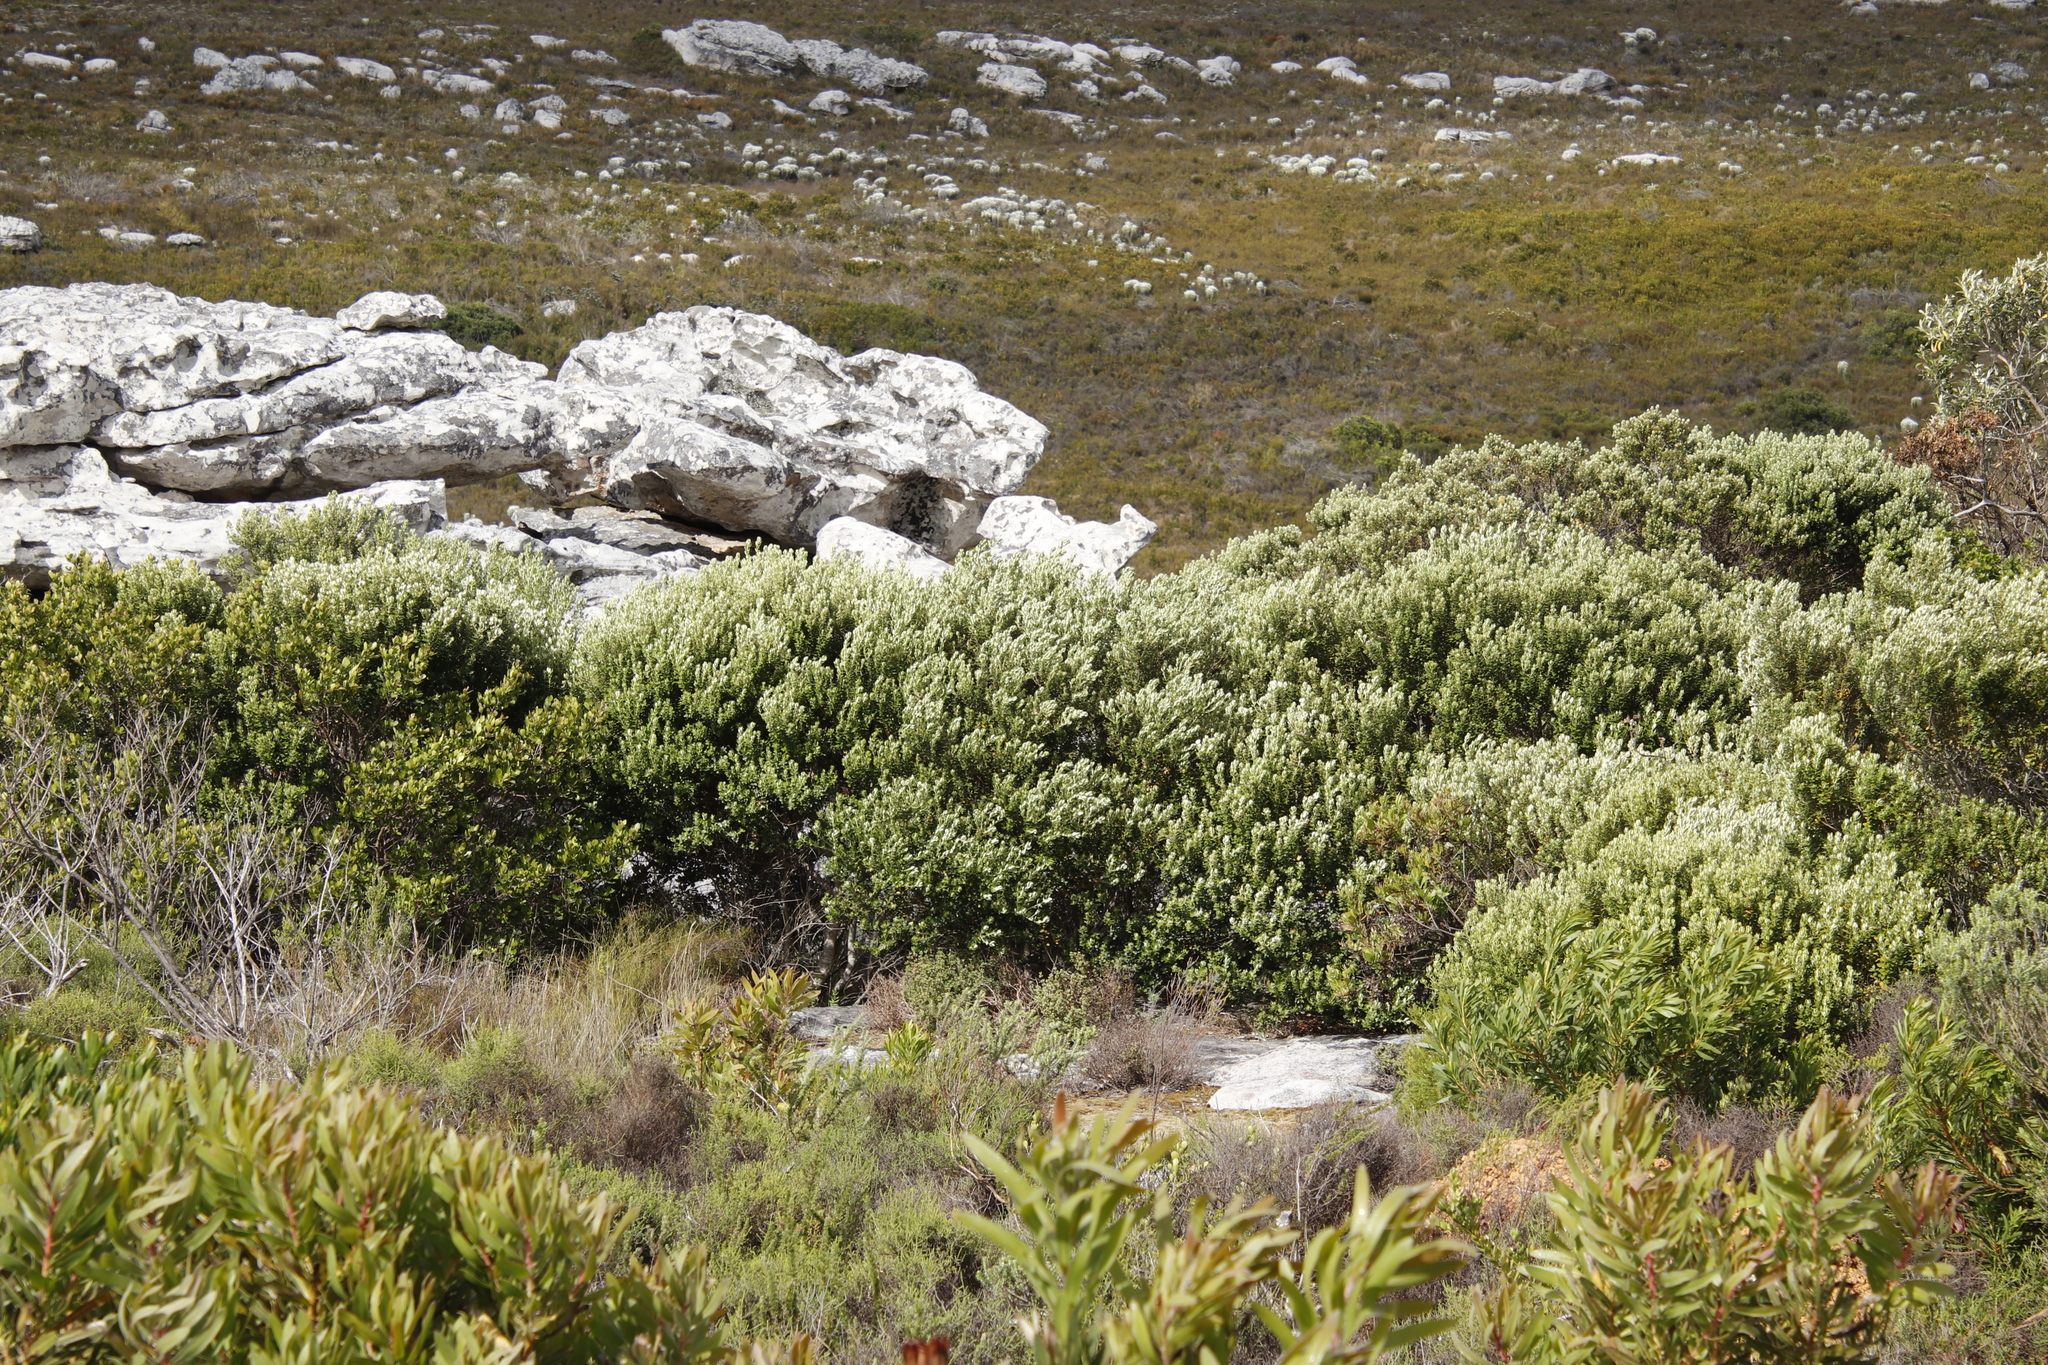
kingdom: Plantae
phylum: Tracheophyta
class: Magnoliopsida
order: Rosales
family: Rhamnaceae
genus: Phylica
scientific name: Phylica buxifolia
